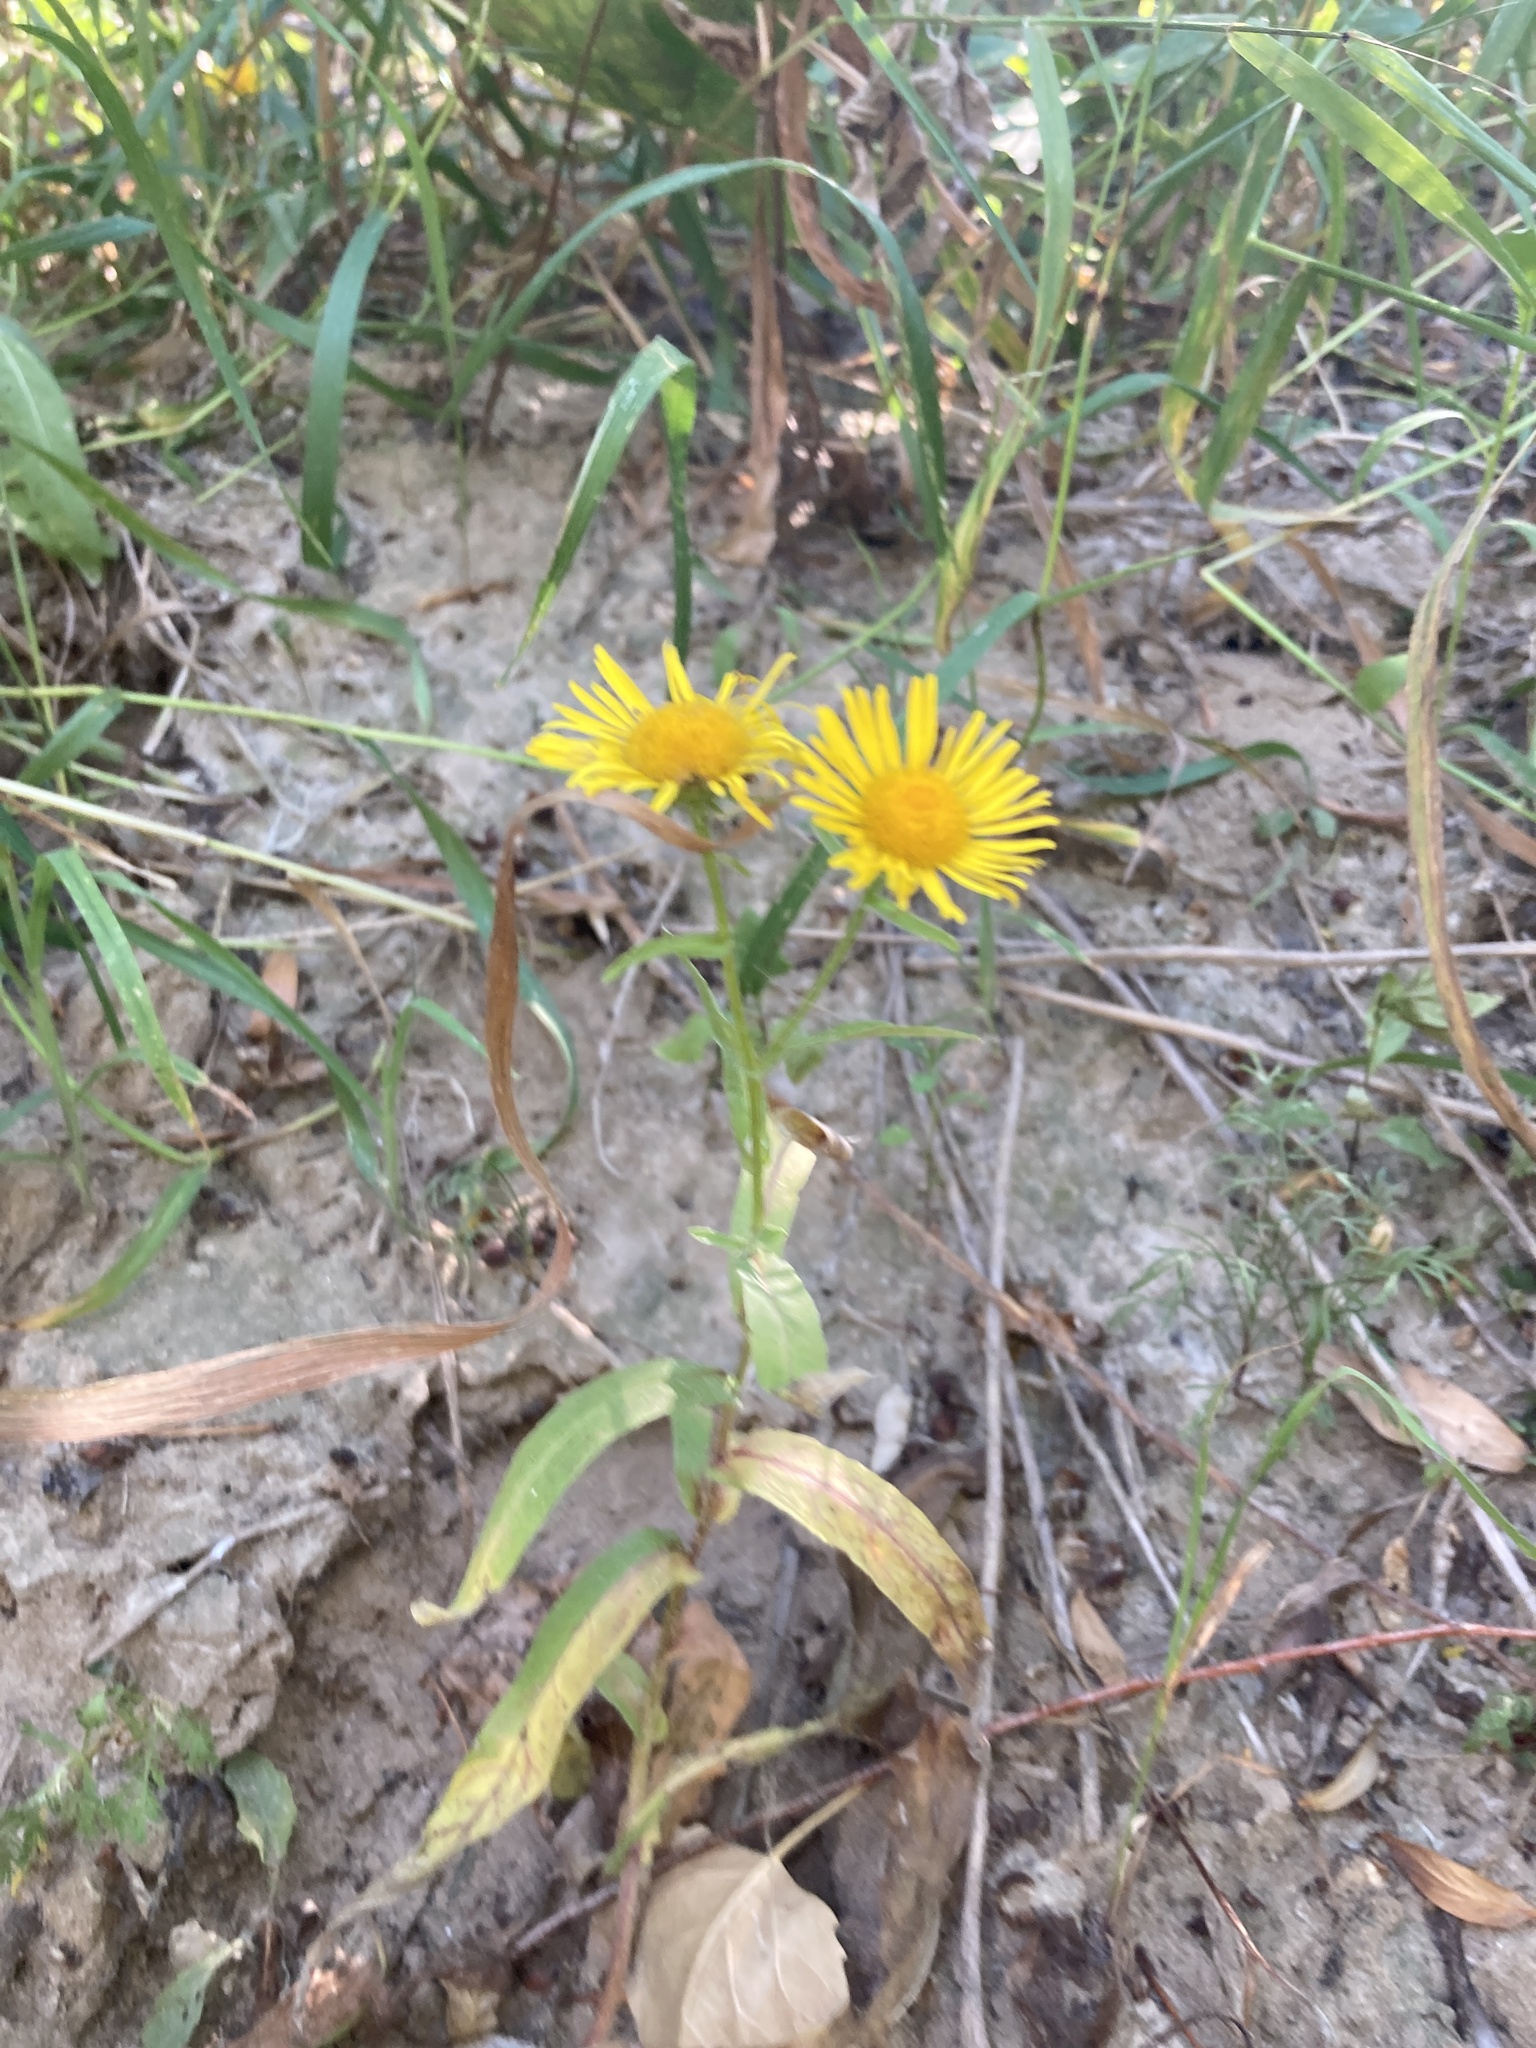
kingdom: Plantae
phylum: Tracheophyta
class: Magnoliopsida
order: Asterales
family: Asteraceae
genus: Pentanema
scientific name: Pentanema britannicum
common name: British elecampane
